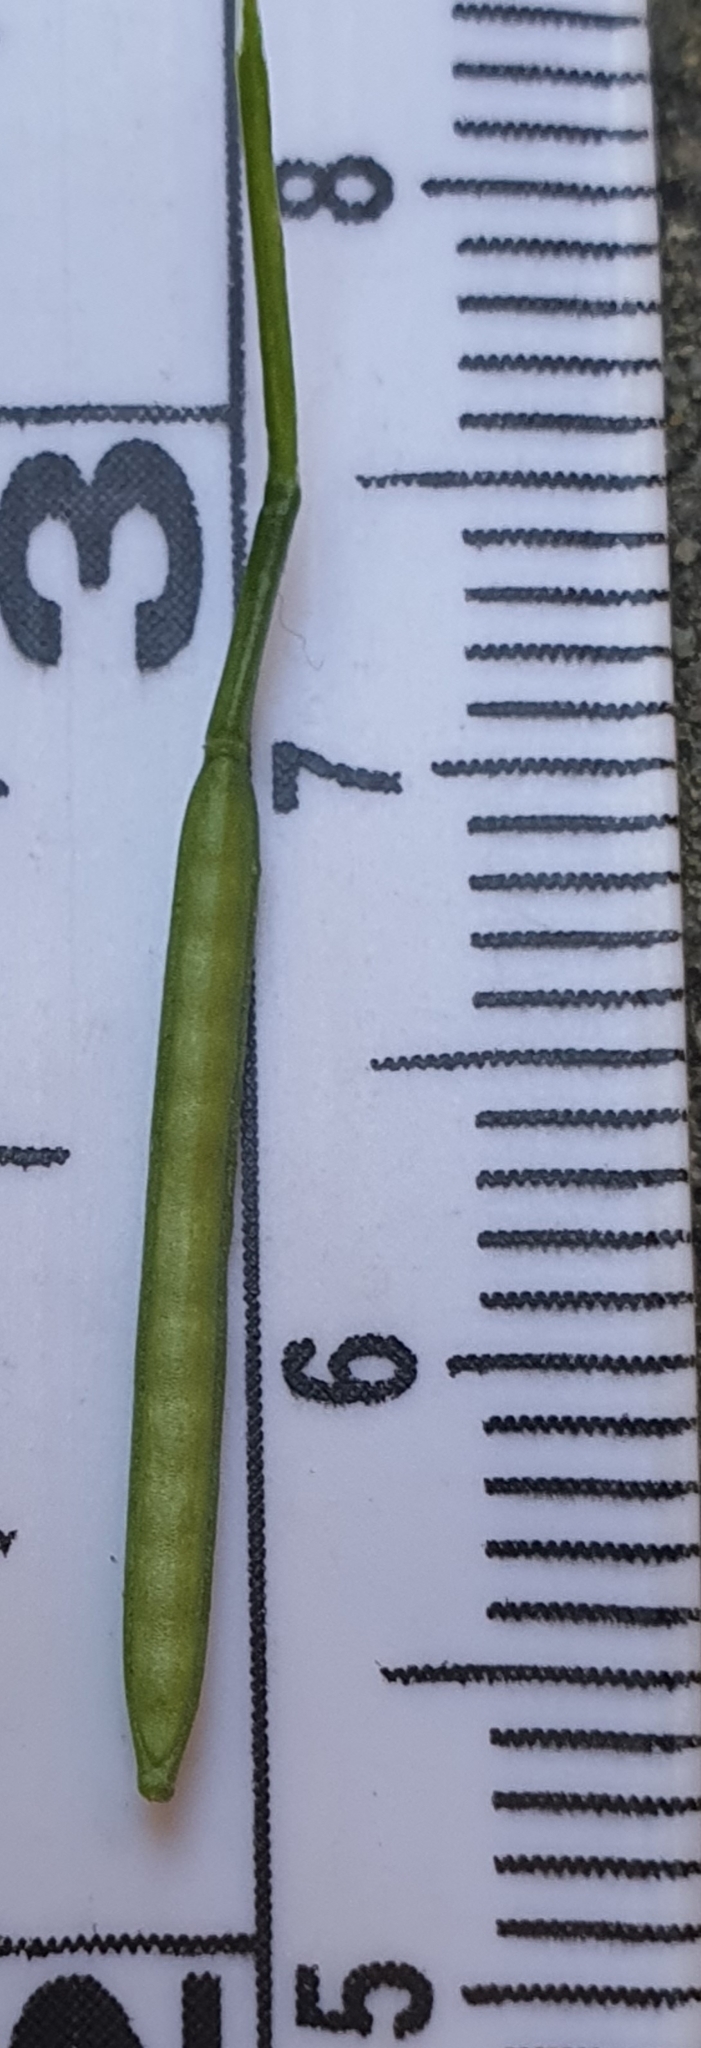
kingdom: Plantae
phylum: Tracheophyta
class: Magnoliopsida
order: Brassicales
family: Brassicaceae
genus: Cardamine
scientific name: Cardamine hirsuta
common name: Hairy bittercress
